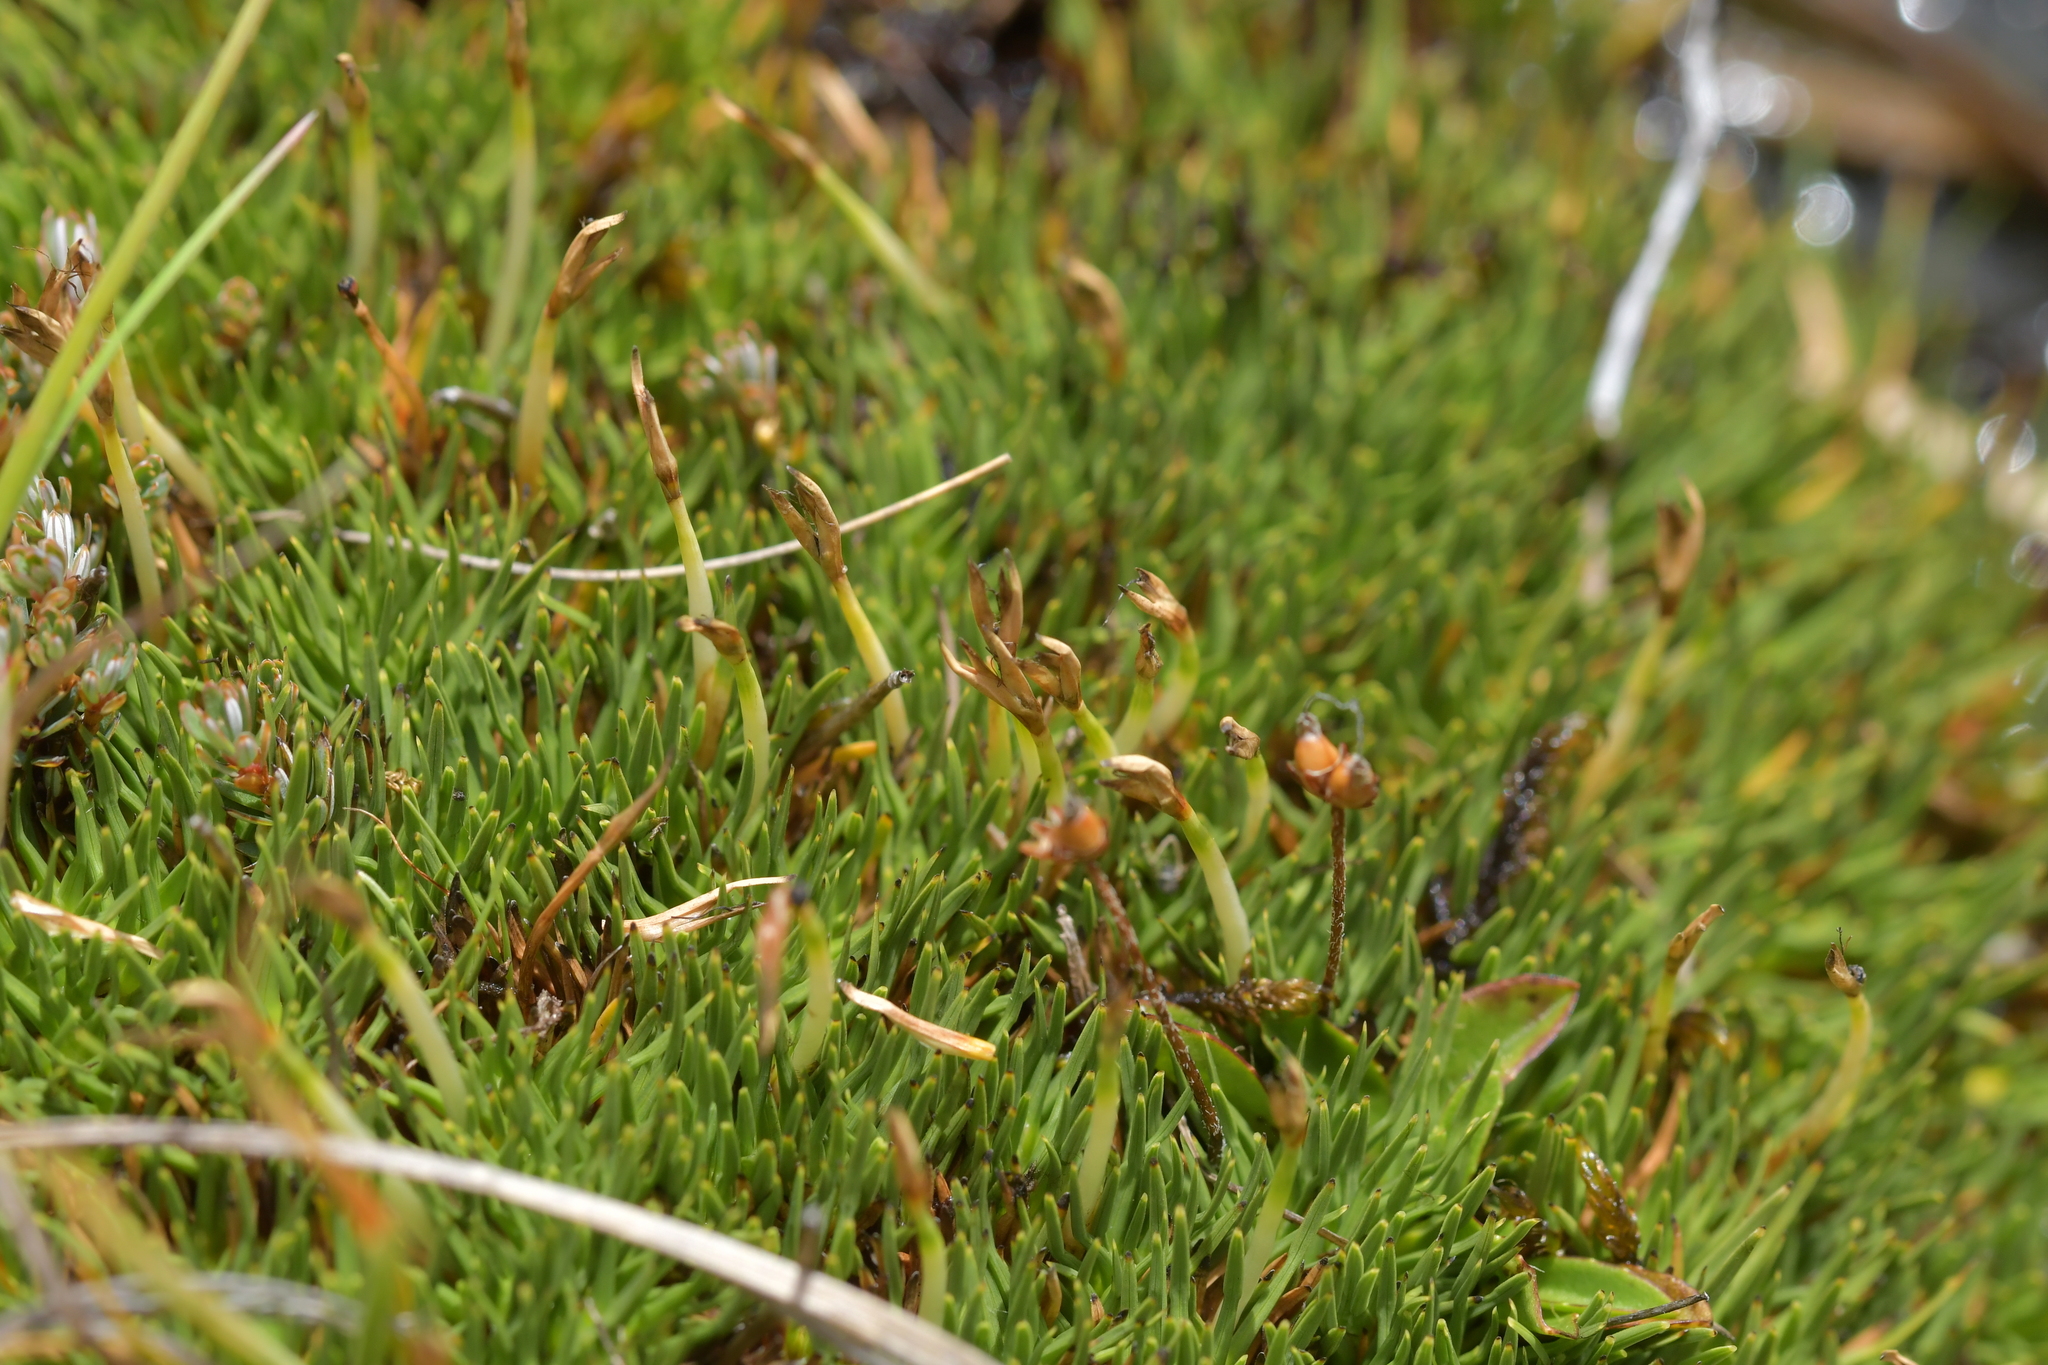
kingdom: Plantae
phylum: Tracheophyta
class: Liliopsida
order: Poales
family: Cyperaceae
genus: Oreobolus
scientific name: Oreobolus pectinatus
